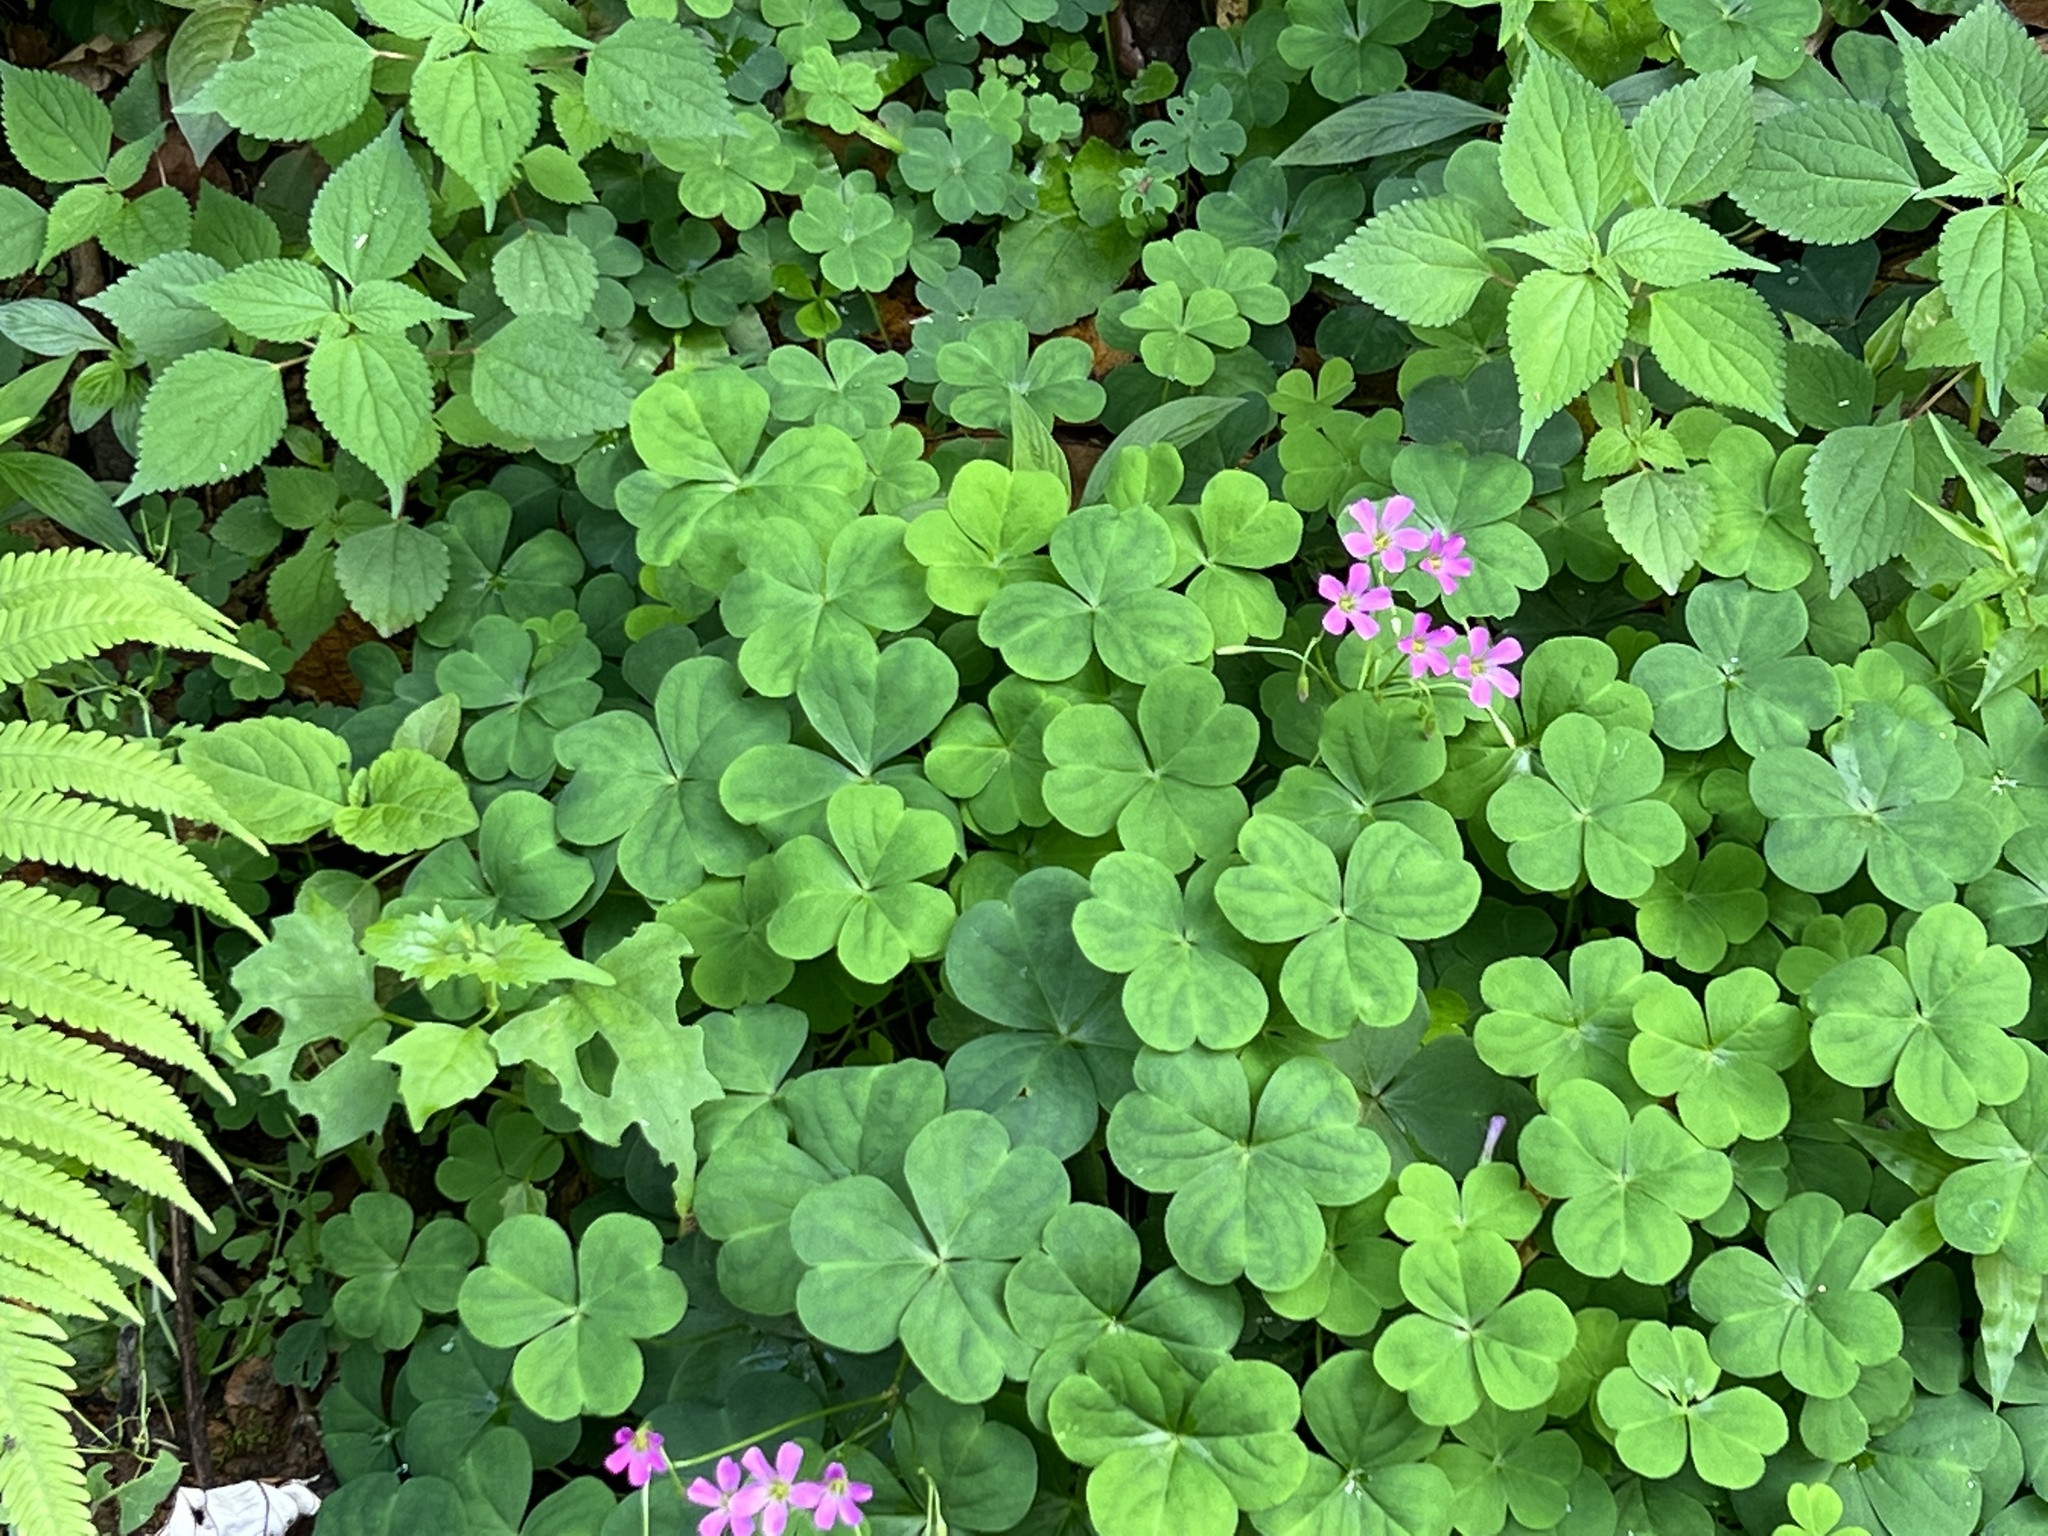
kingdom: Plantae
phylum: Tracheophyta
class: Magnoliopsida
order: Oxalidales
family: Oxalidaceae
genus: Oxalis
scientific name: Oxalis debilis
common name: Large-flowered pink-sorrel
